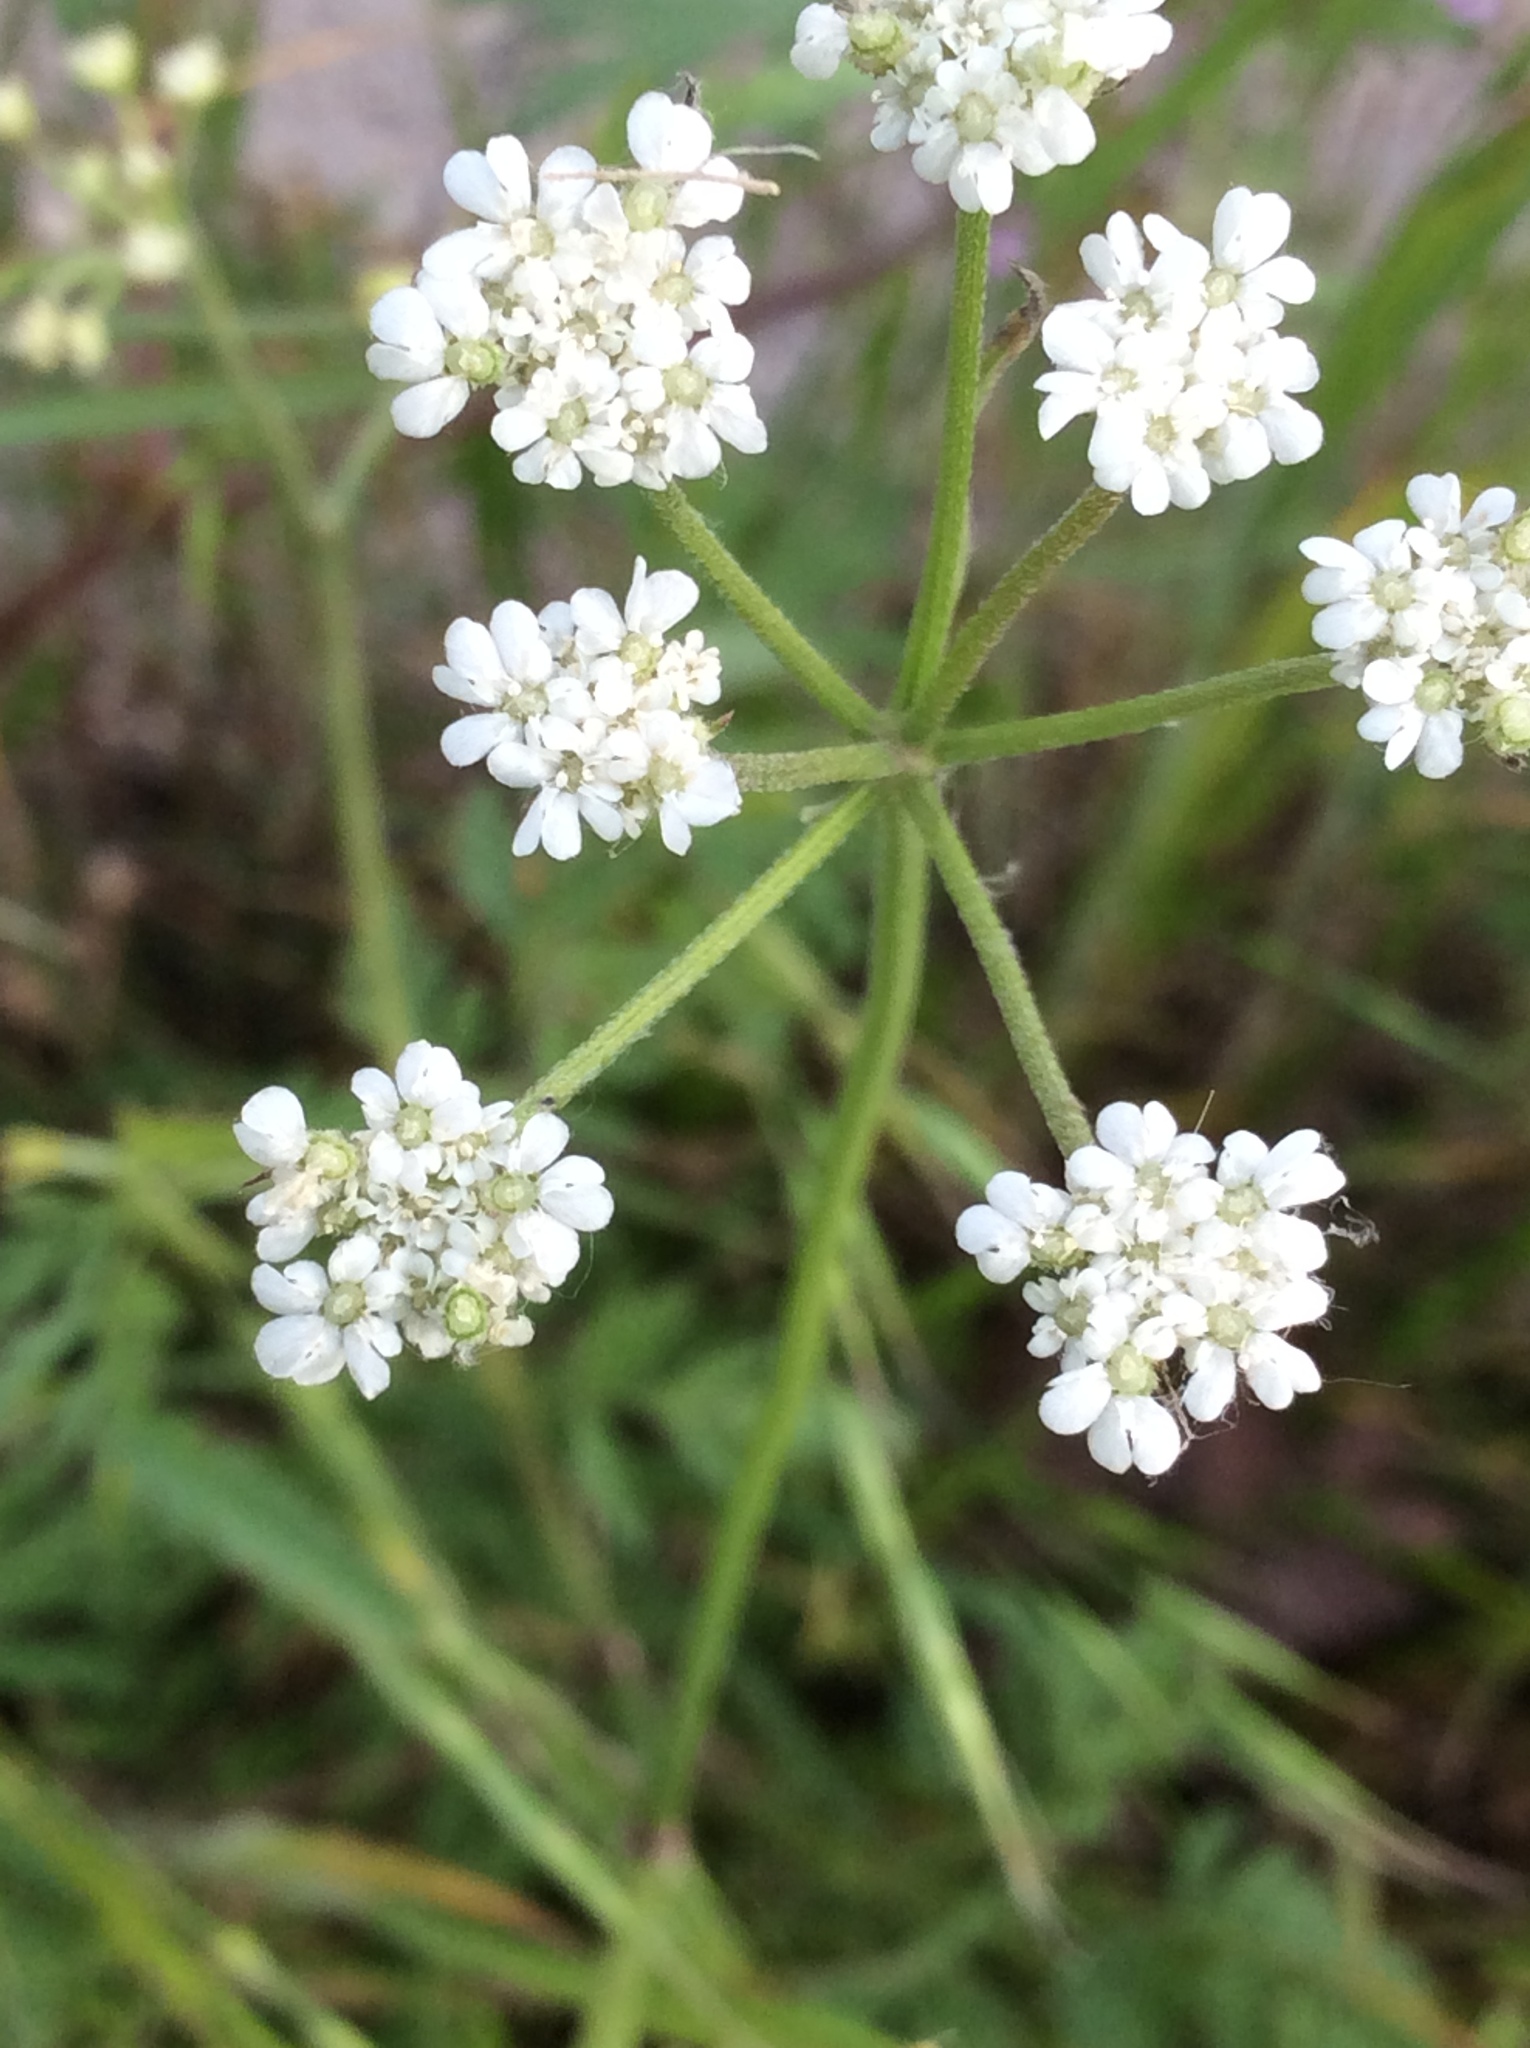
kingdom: Plantae
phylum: Tracheophyta
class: Magnoliopsida
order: Apiales
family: Apiaceae
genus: Torilis
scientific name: Torilis arvensis
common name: Spreading hedge-parsley
